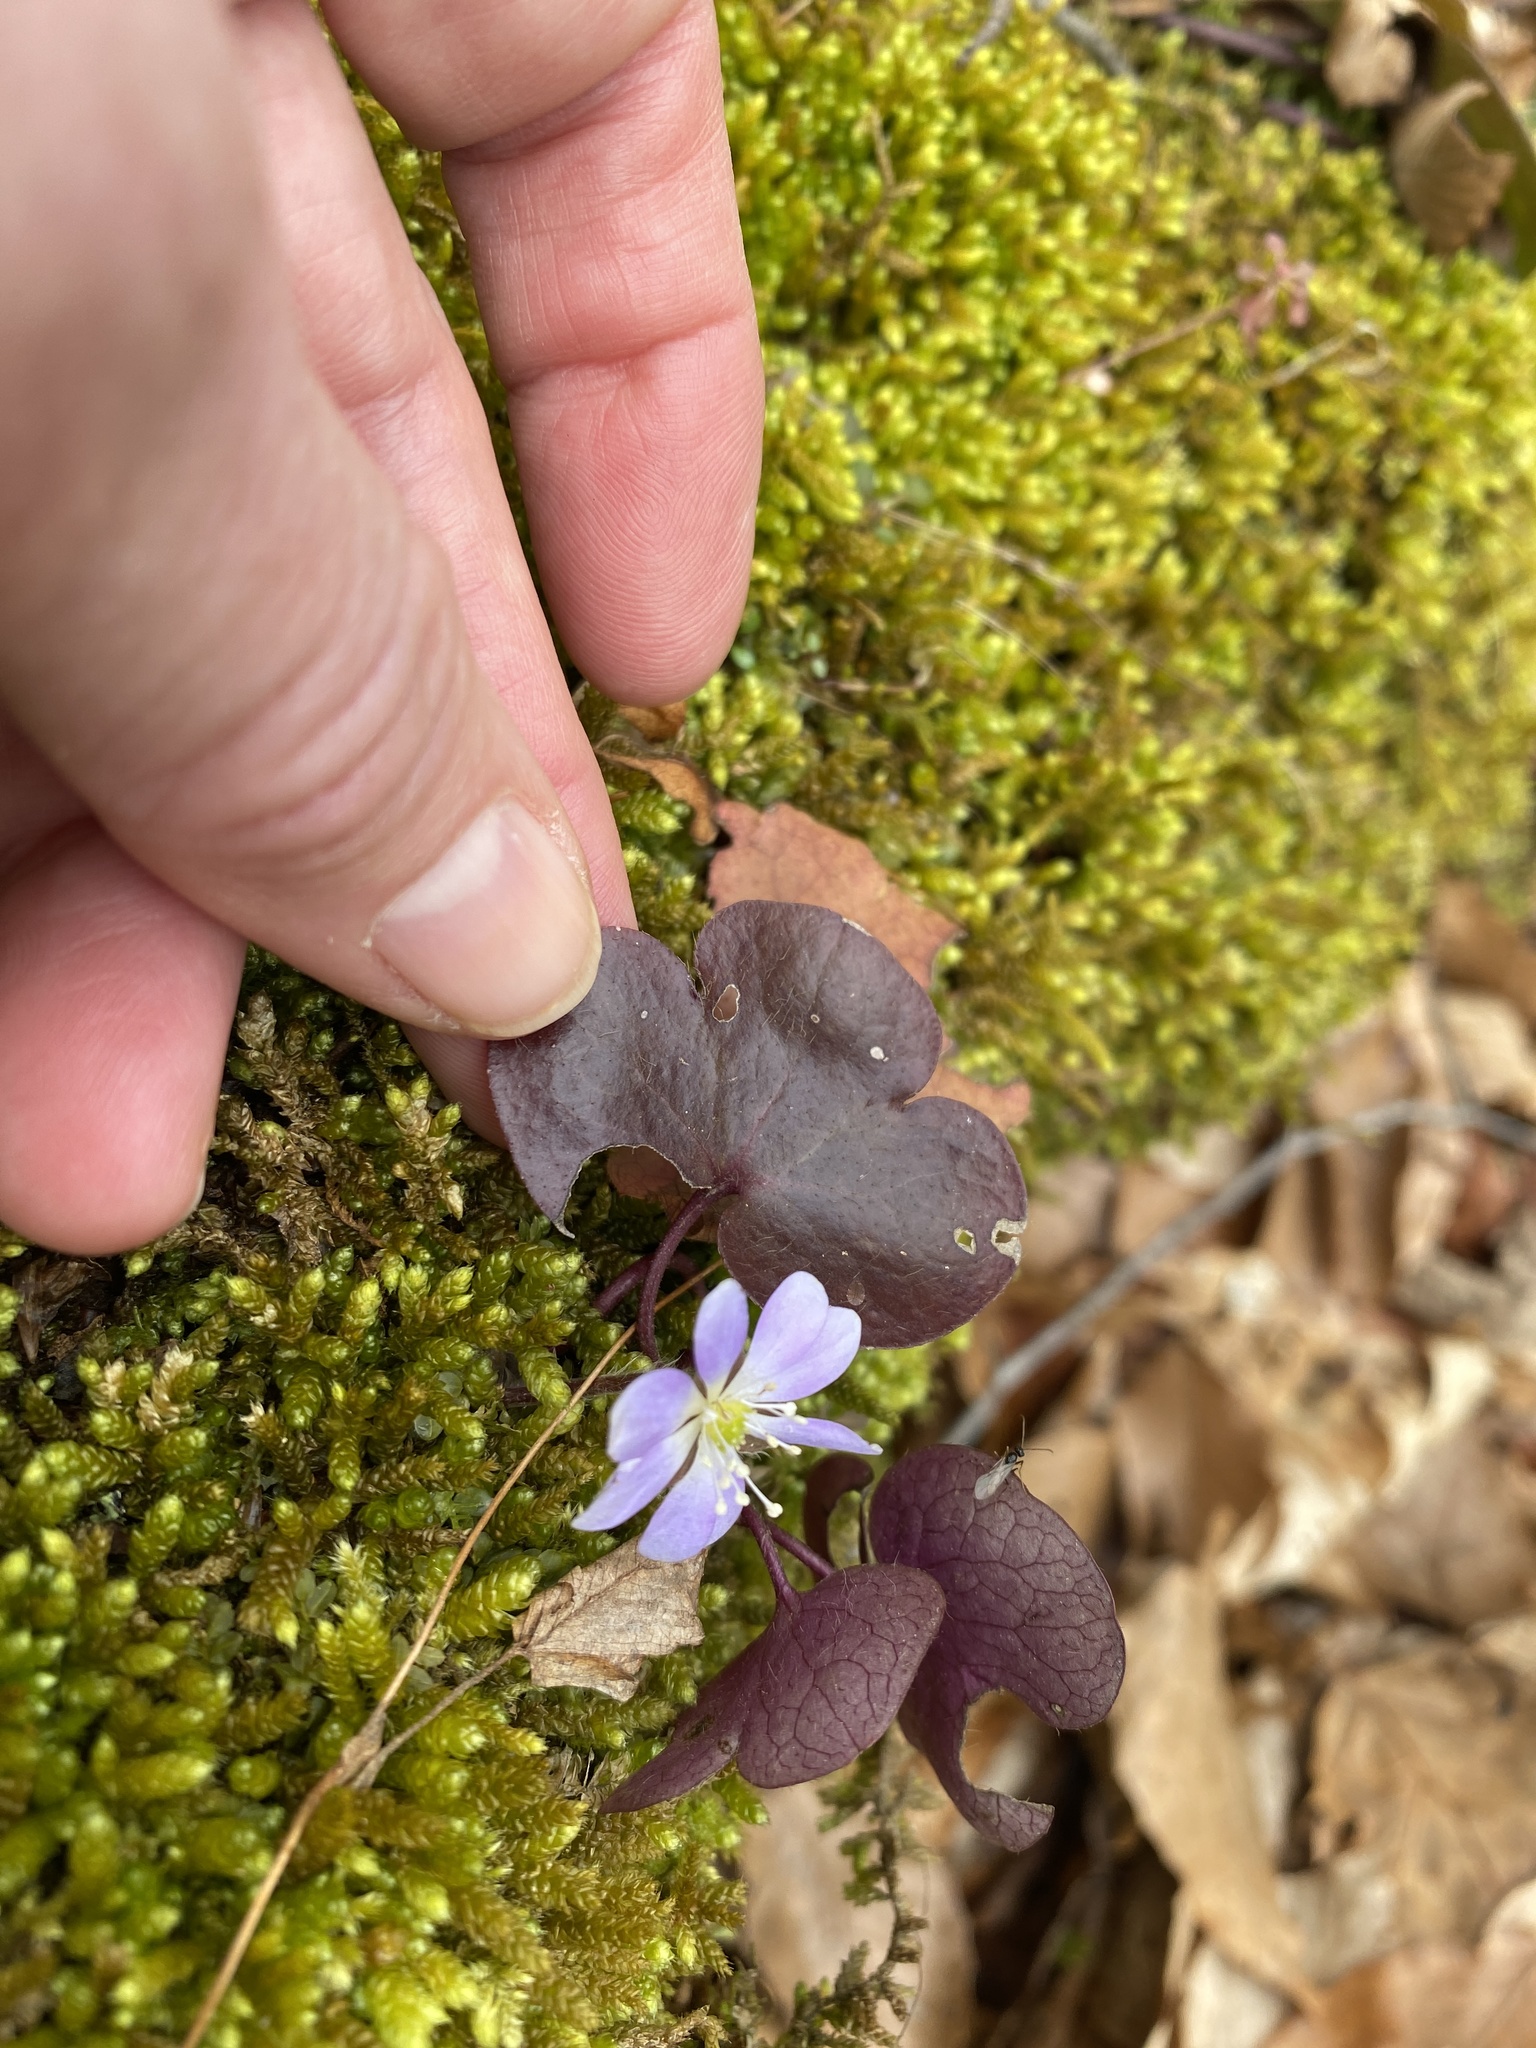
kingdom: Plantae
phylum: Tracheophyta
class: Magnoliopsida
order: Ranunculales
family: Ranunculaceae
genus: Hepatica
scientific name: Hepatica americana
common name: American hepatica
